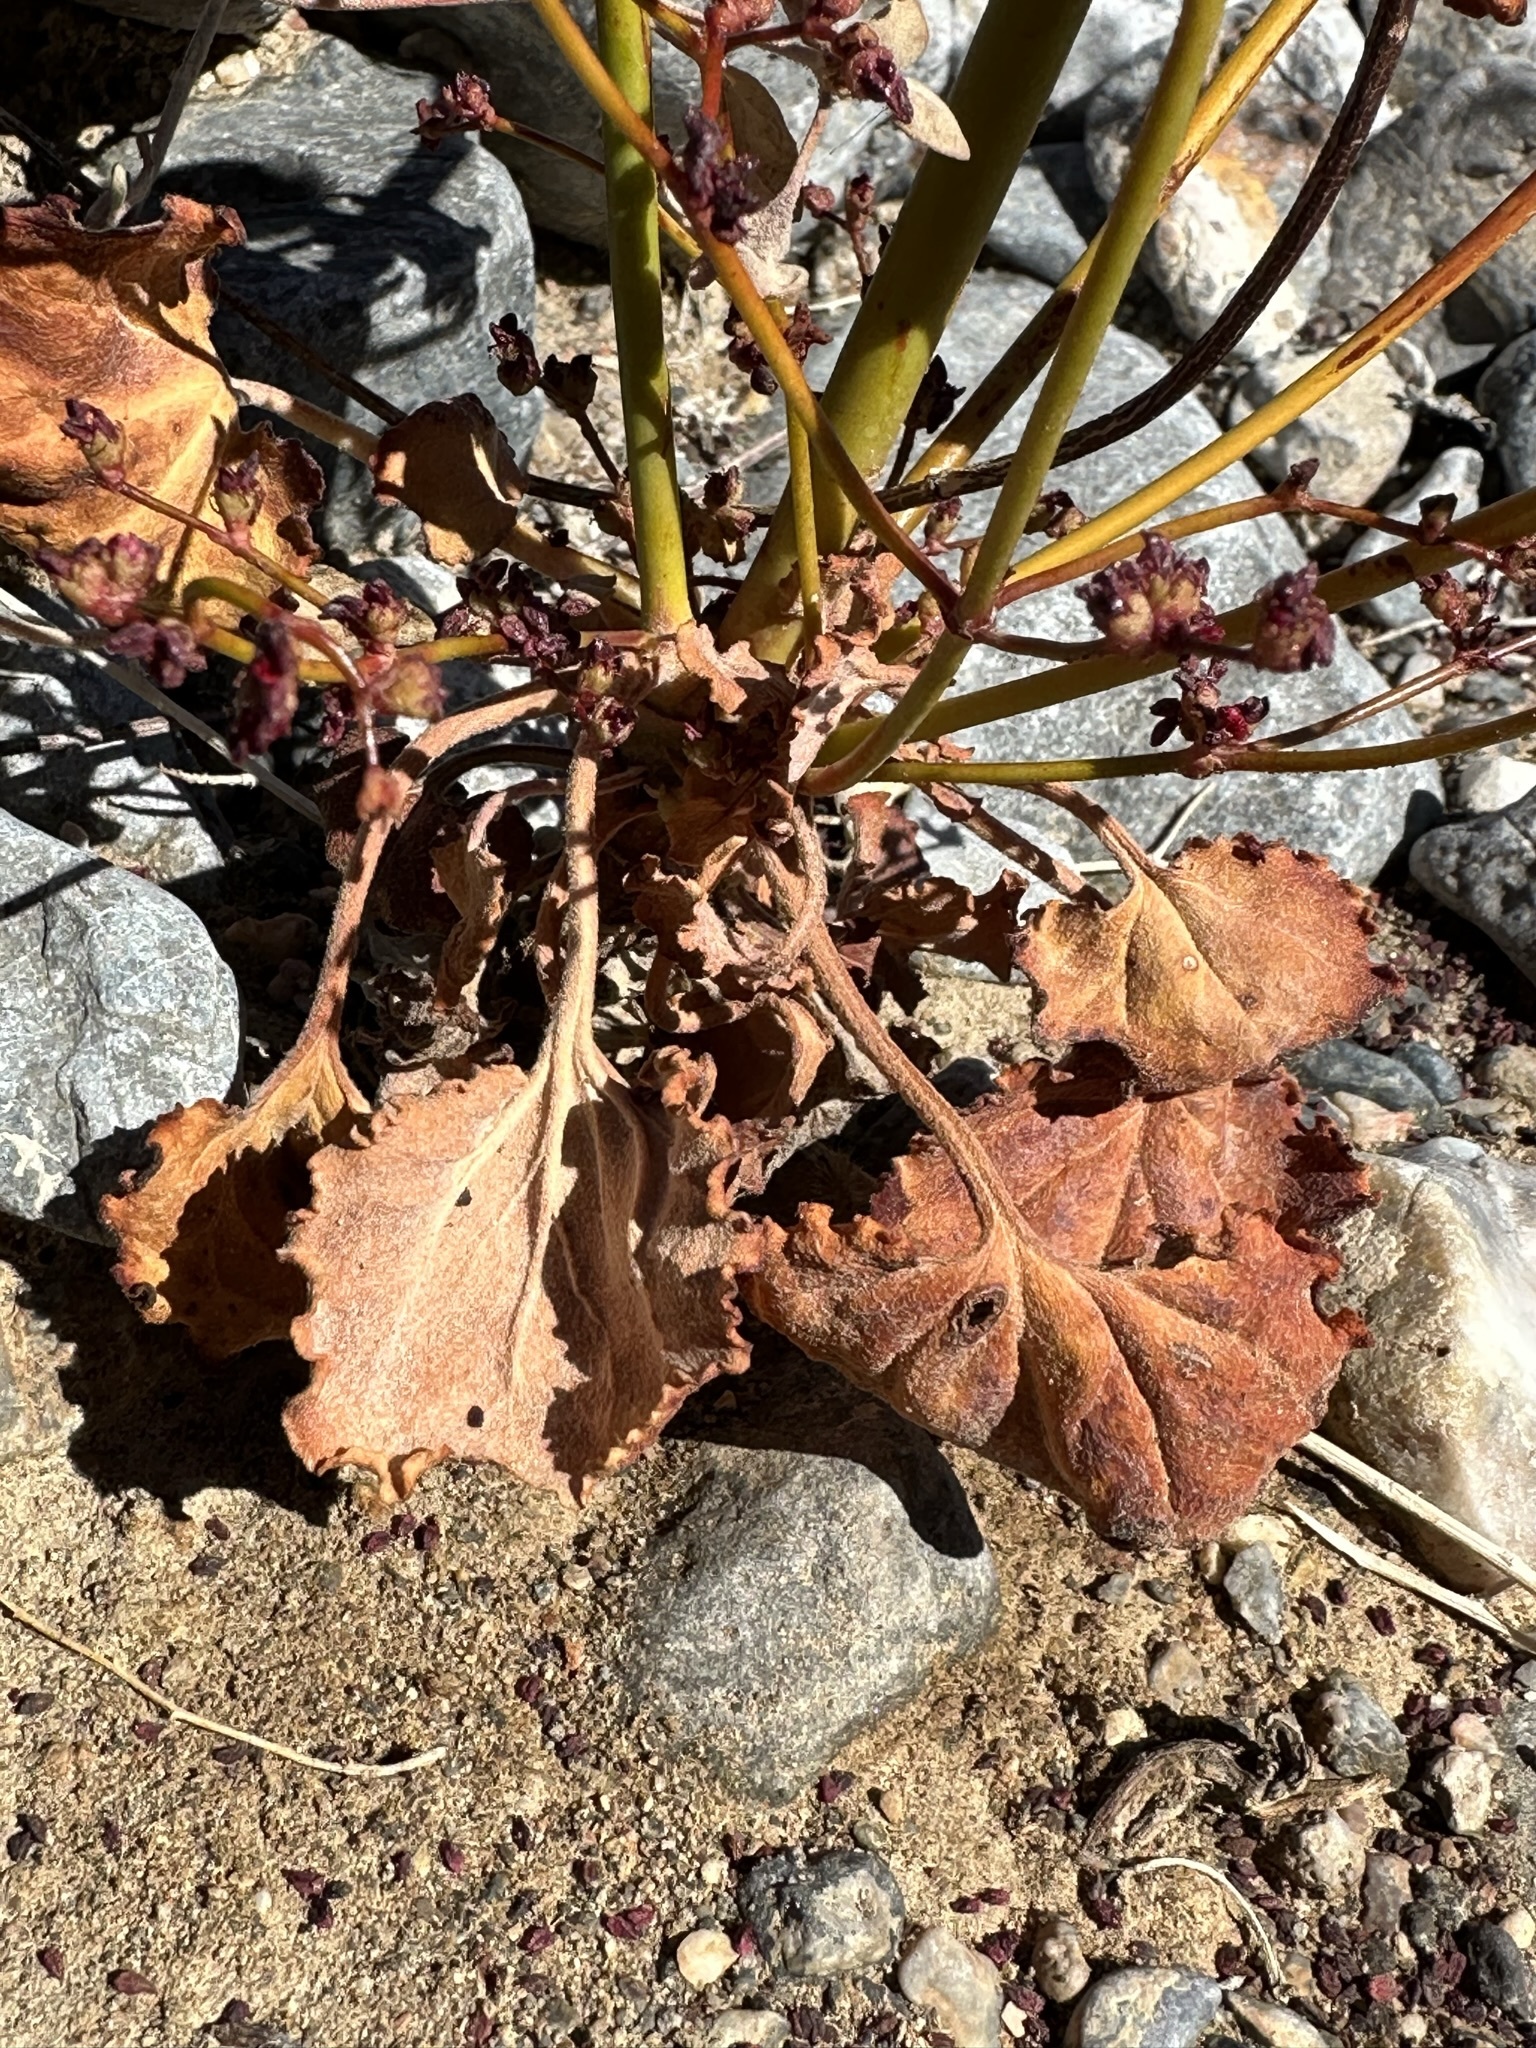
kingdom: Plantae
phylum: Tracheophyta
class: Magnoliopsida
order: Caryophyllales
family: Polygonaceae
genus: Eriogonum
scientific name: Eriogonum hoffmannii
